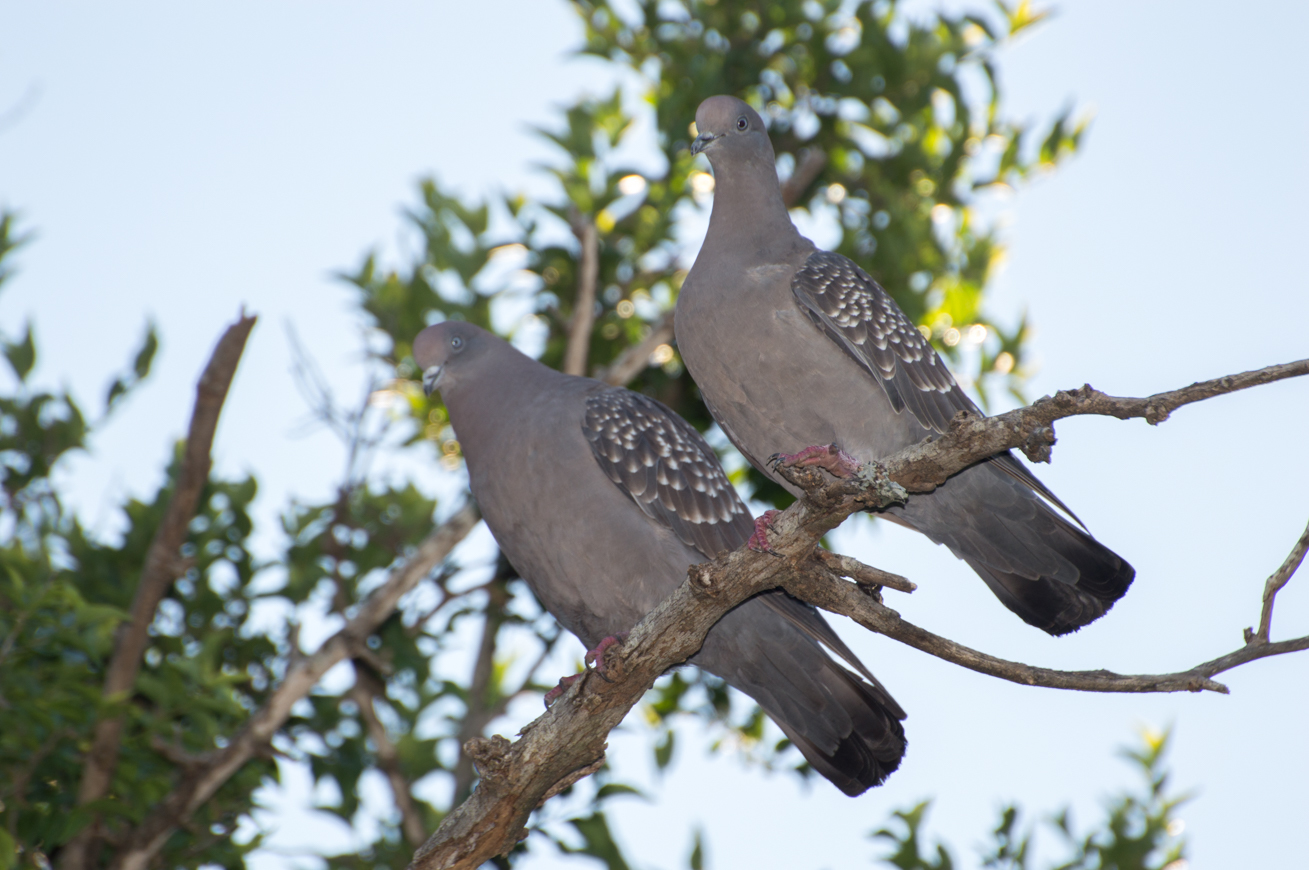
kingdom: Animalia
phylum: Chordata
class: Aves
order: Columbiformes
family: Columbidae
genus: Patagioenas
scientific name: Patagioenas maculosa
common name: Spot-winged pigeon
